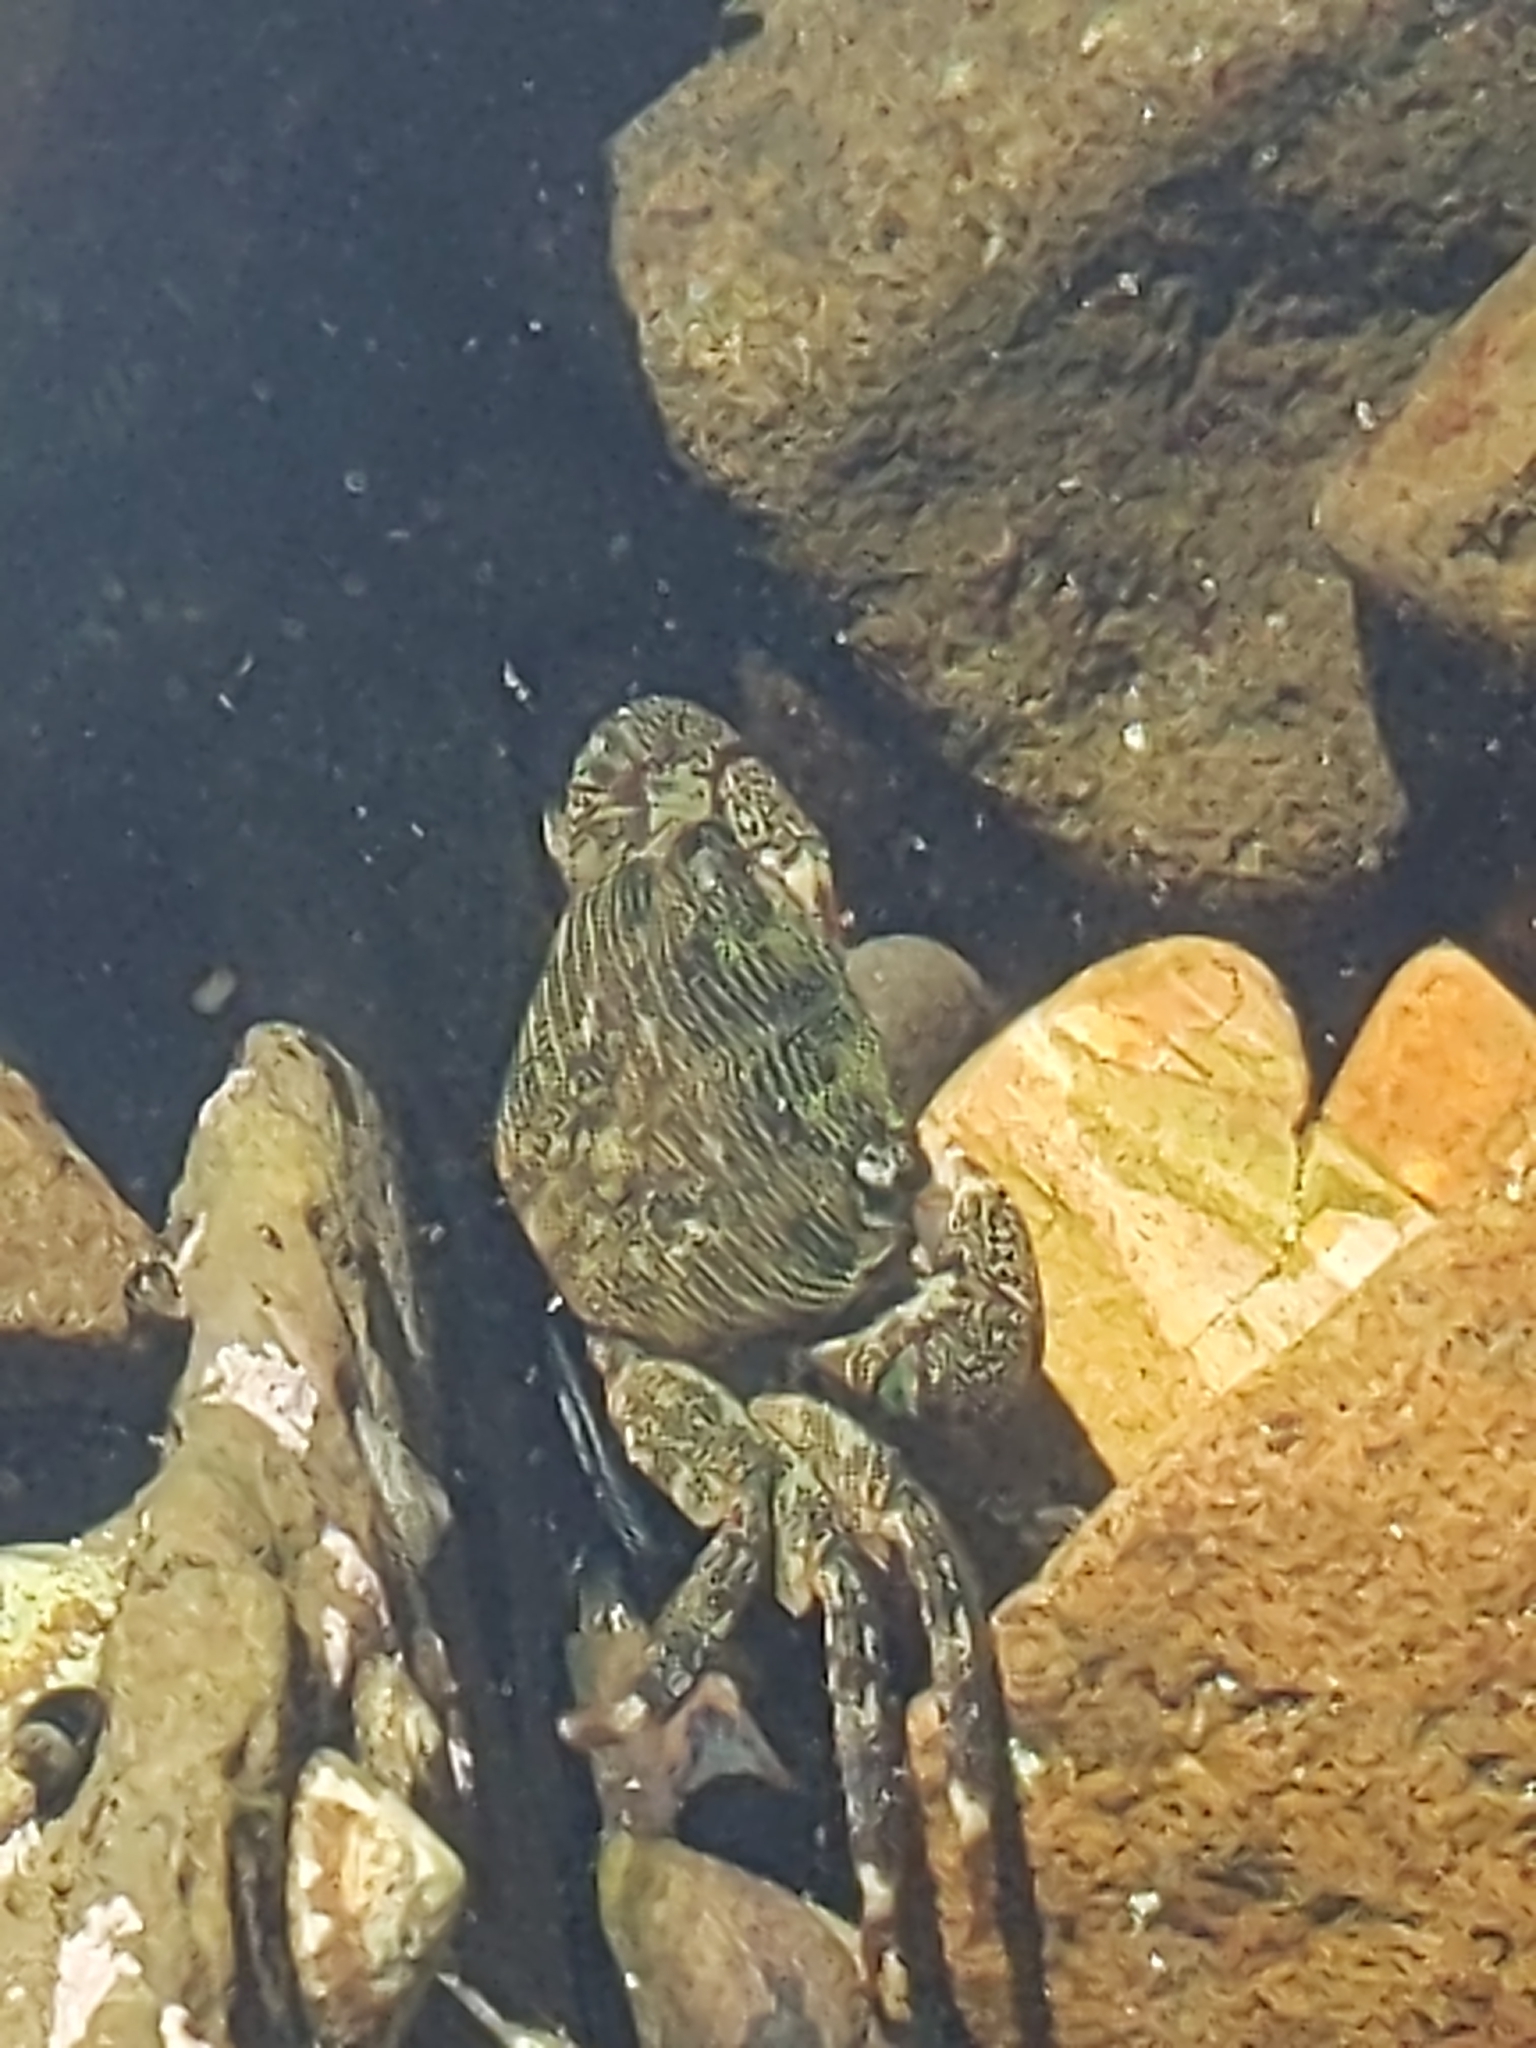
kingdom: Animalia
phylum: Arthropoda
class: Malacostraca
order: Decapoda
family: Grapsidae
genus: Pachygrapsus
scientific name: Pachygrapsus crassipes
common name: Striped shore crab
